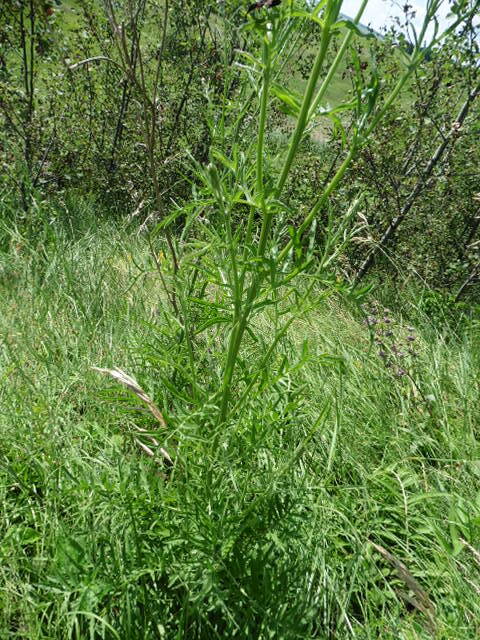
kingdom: Plantae
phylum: Tracheophyta
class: Magnoliopsida
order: Asterales
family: Asteraceae
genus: Centaurea
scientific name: Centaurea scabiosa
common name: Greater knapweed
